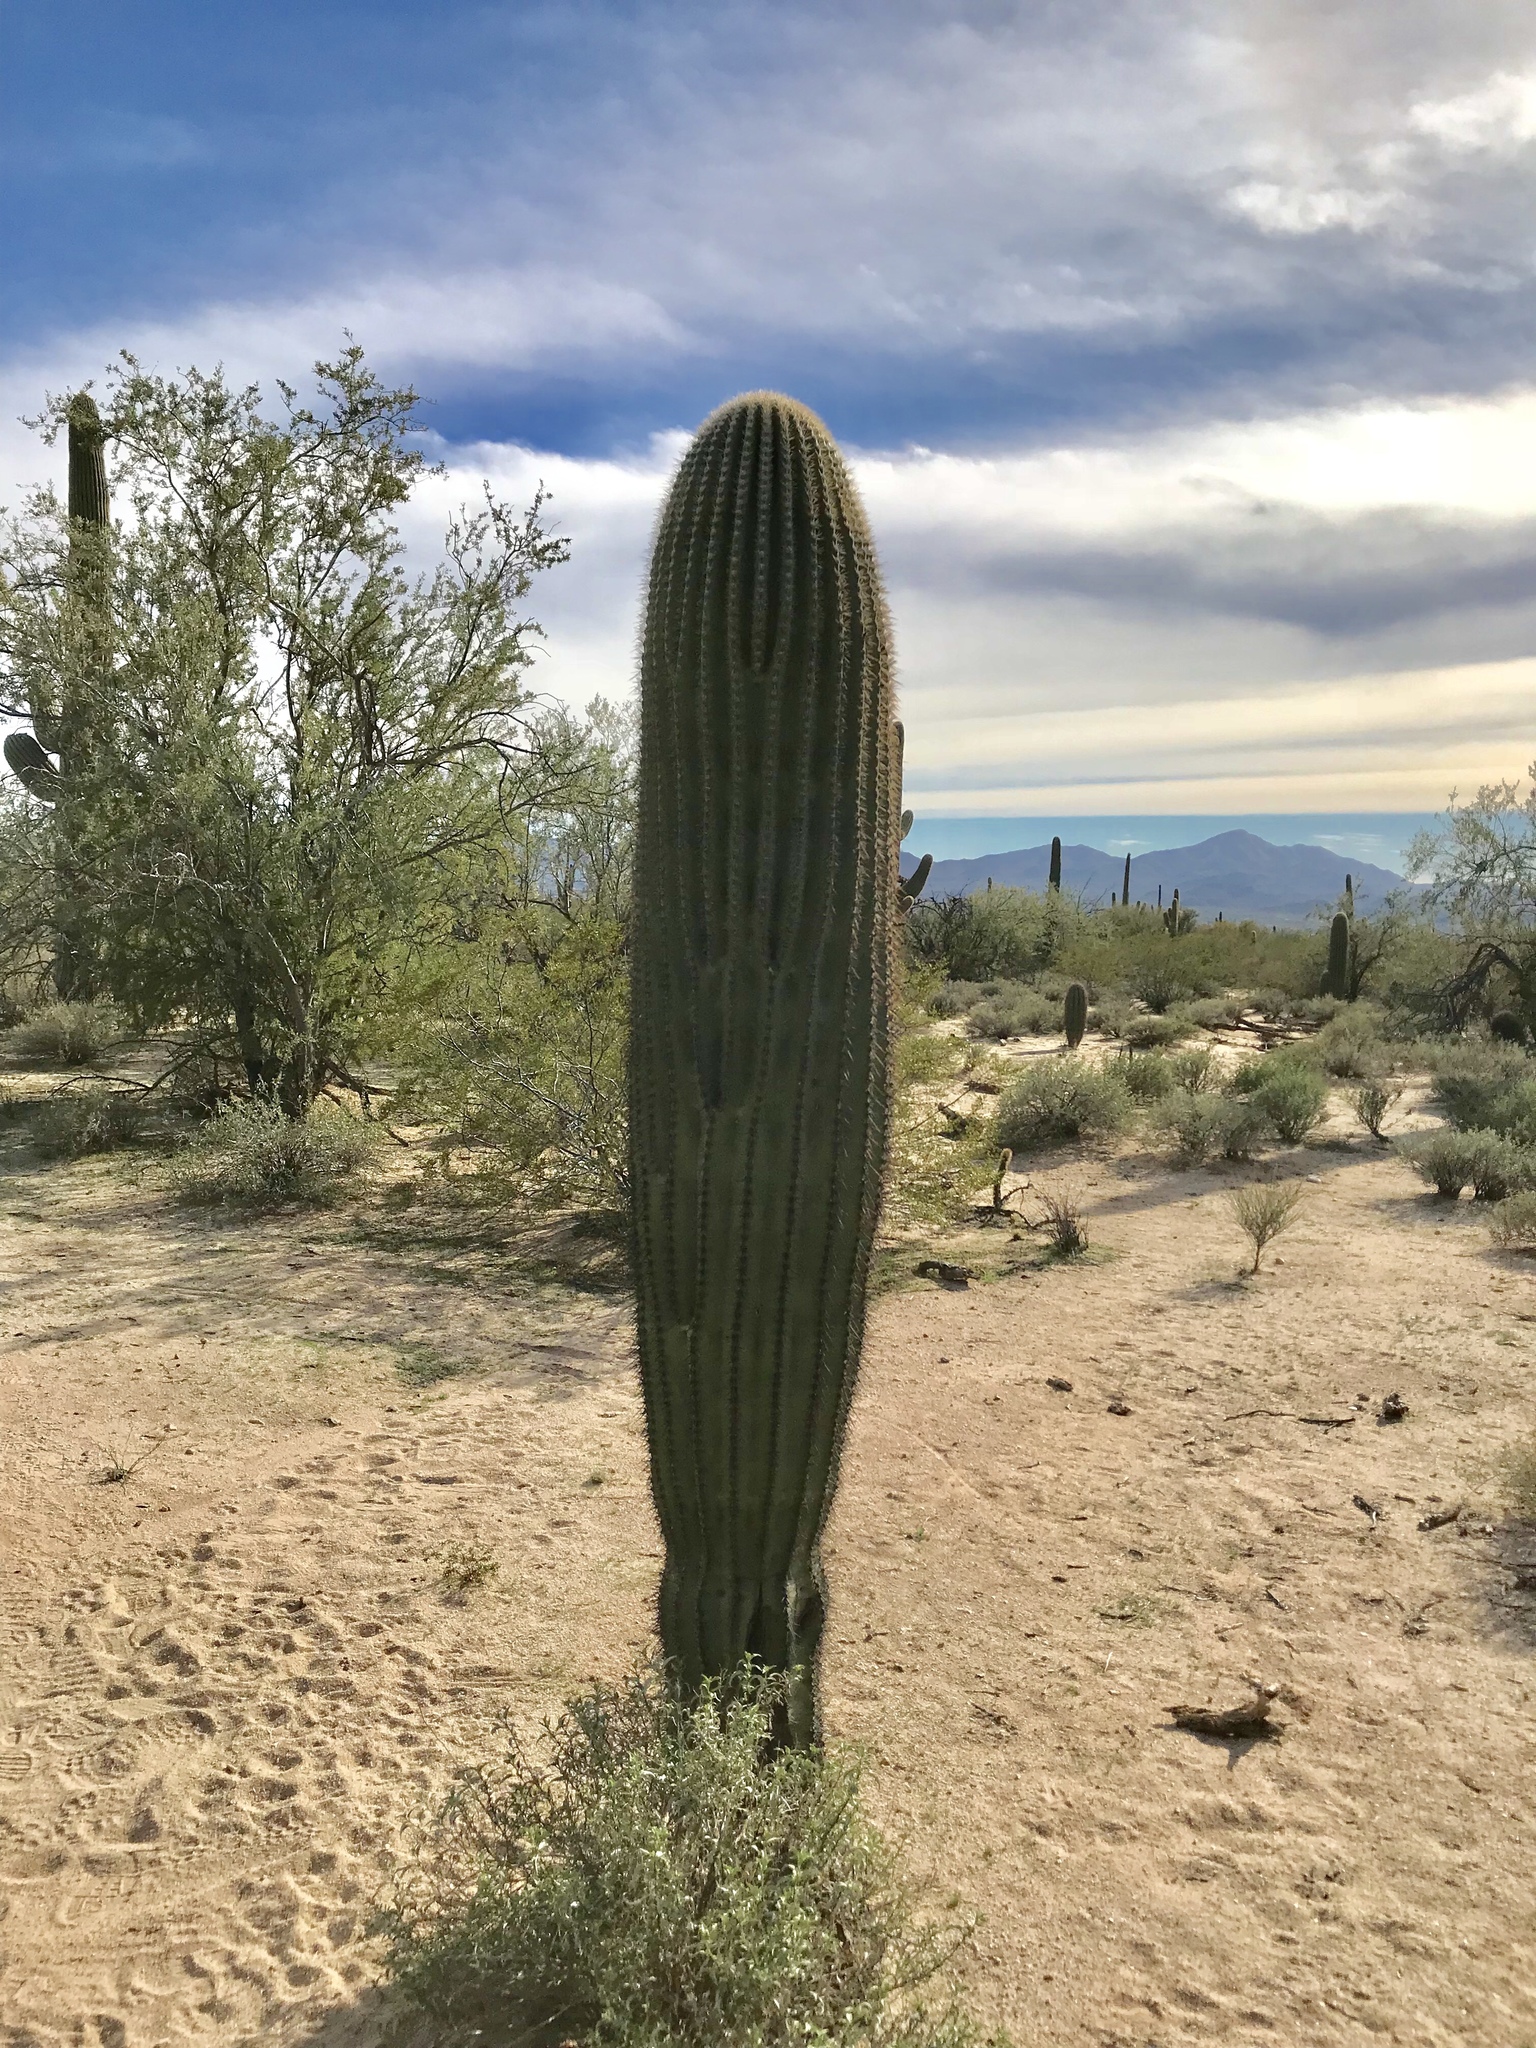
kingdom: Plantae
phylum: Tracheophyta
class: Magnoliopsida
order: Caryophyllales
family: Cactaceae
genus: Carnegiea
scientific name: Carnegiea gigantea
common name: Saguaro
